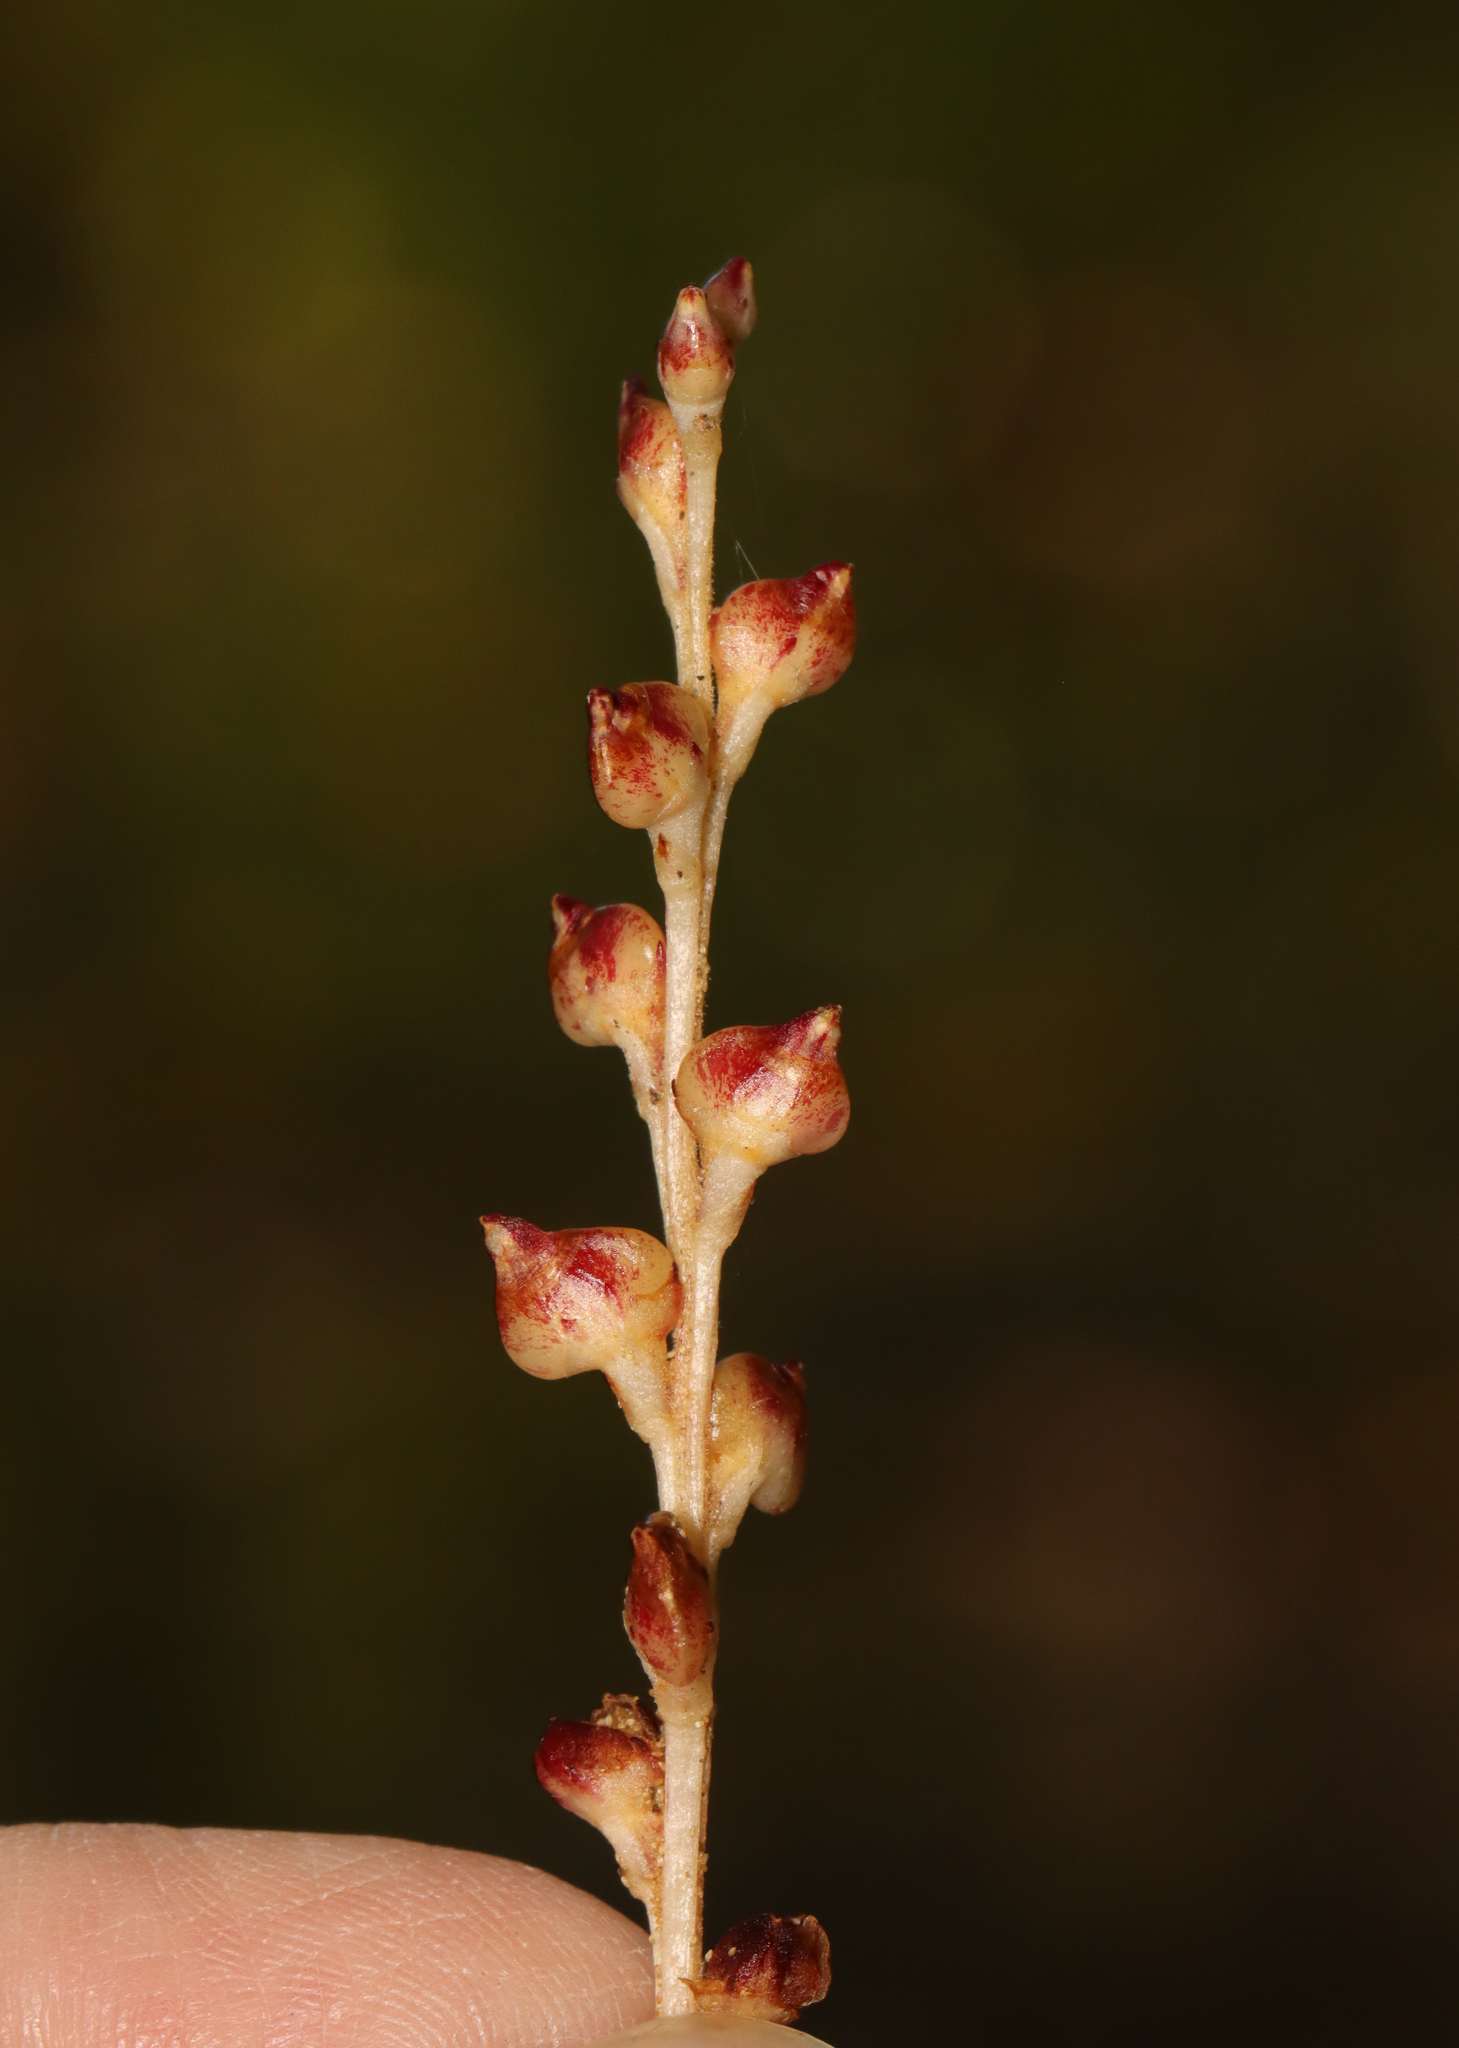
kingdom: Plantae
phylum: Tracheophyta
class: Magnoliopsida
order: Lamiales
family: Orobanchaceae
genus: Epifagus
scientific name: Epifagus virginiana
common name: Beechdrops
